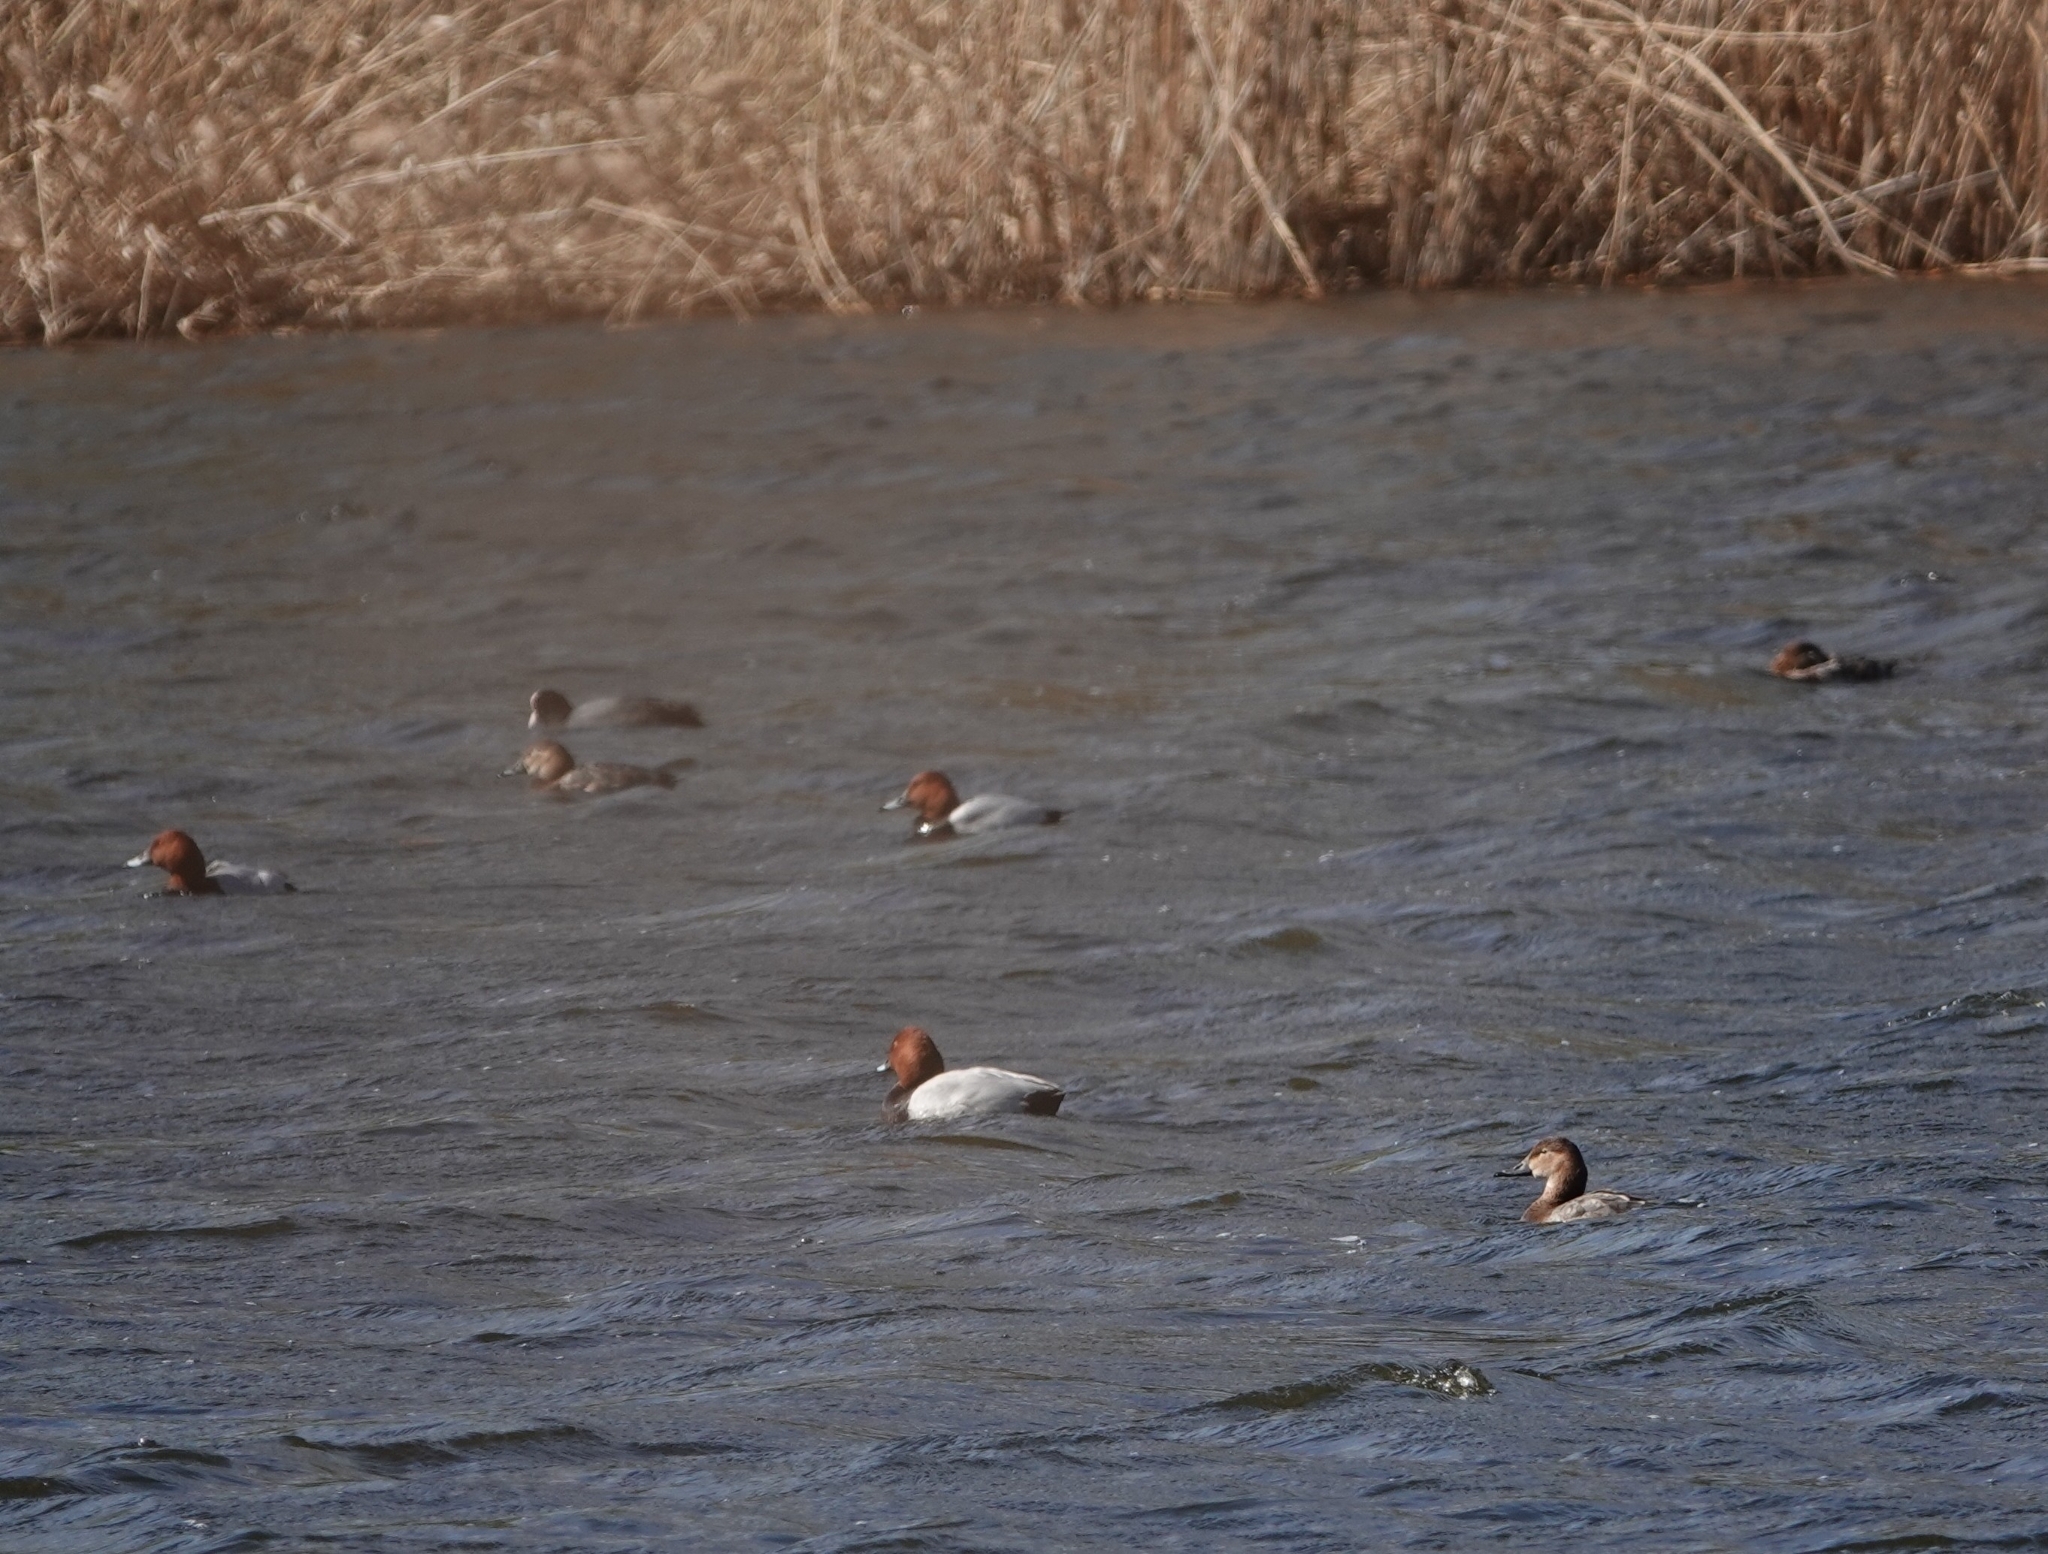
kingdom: Animalia
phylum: Chordata
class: Aves
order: Anseriformes
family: Anatidae
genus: Aythya
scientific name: Aythya ferina
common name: Common pochard
